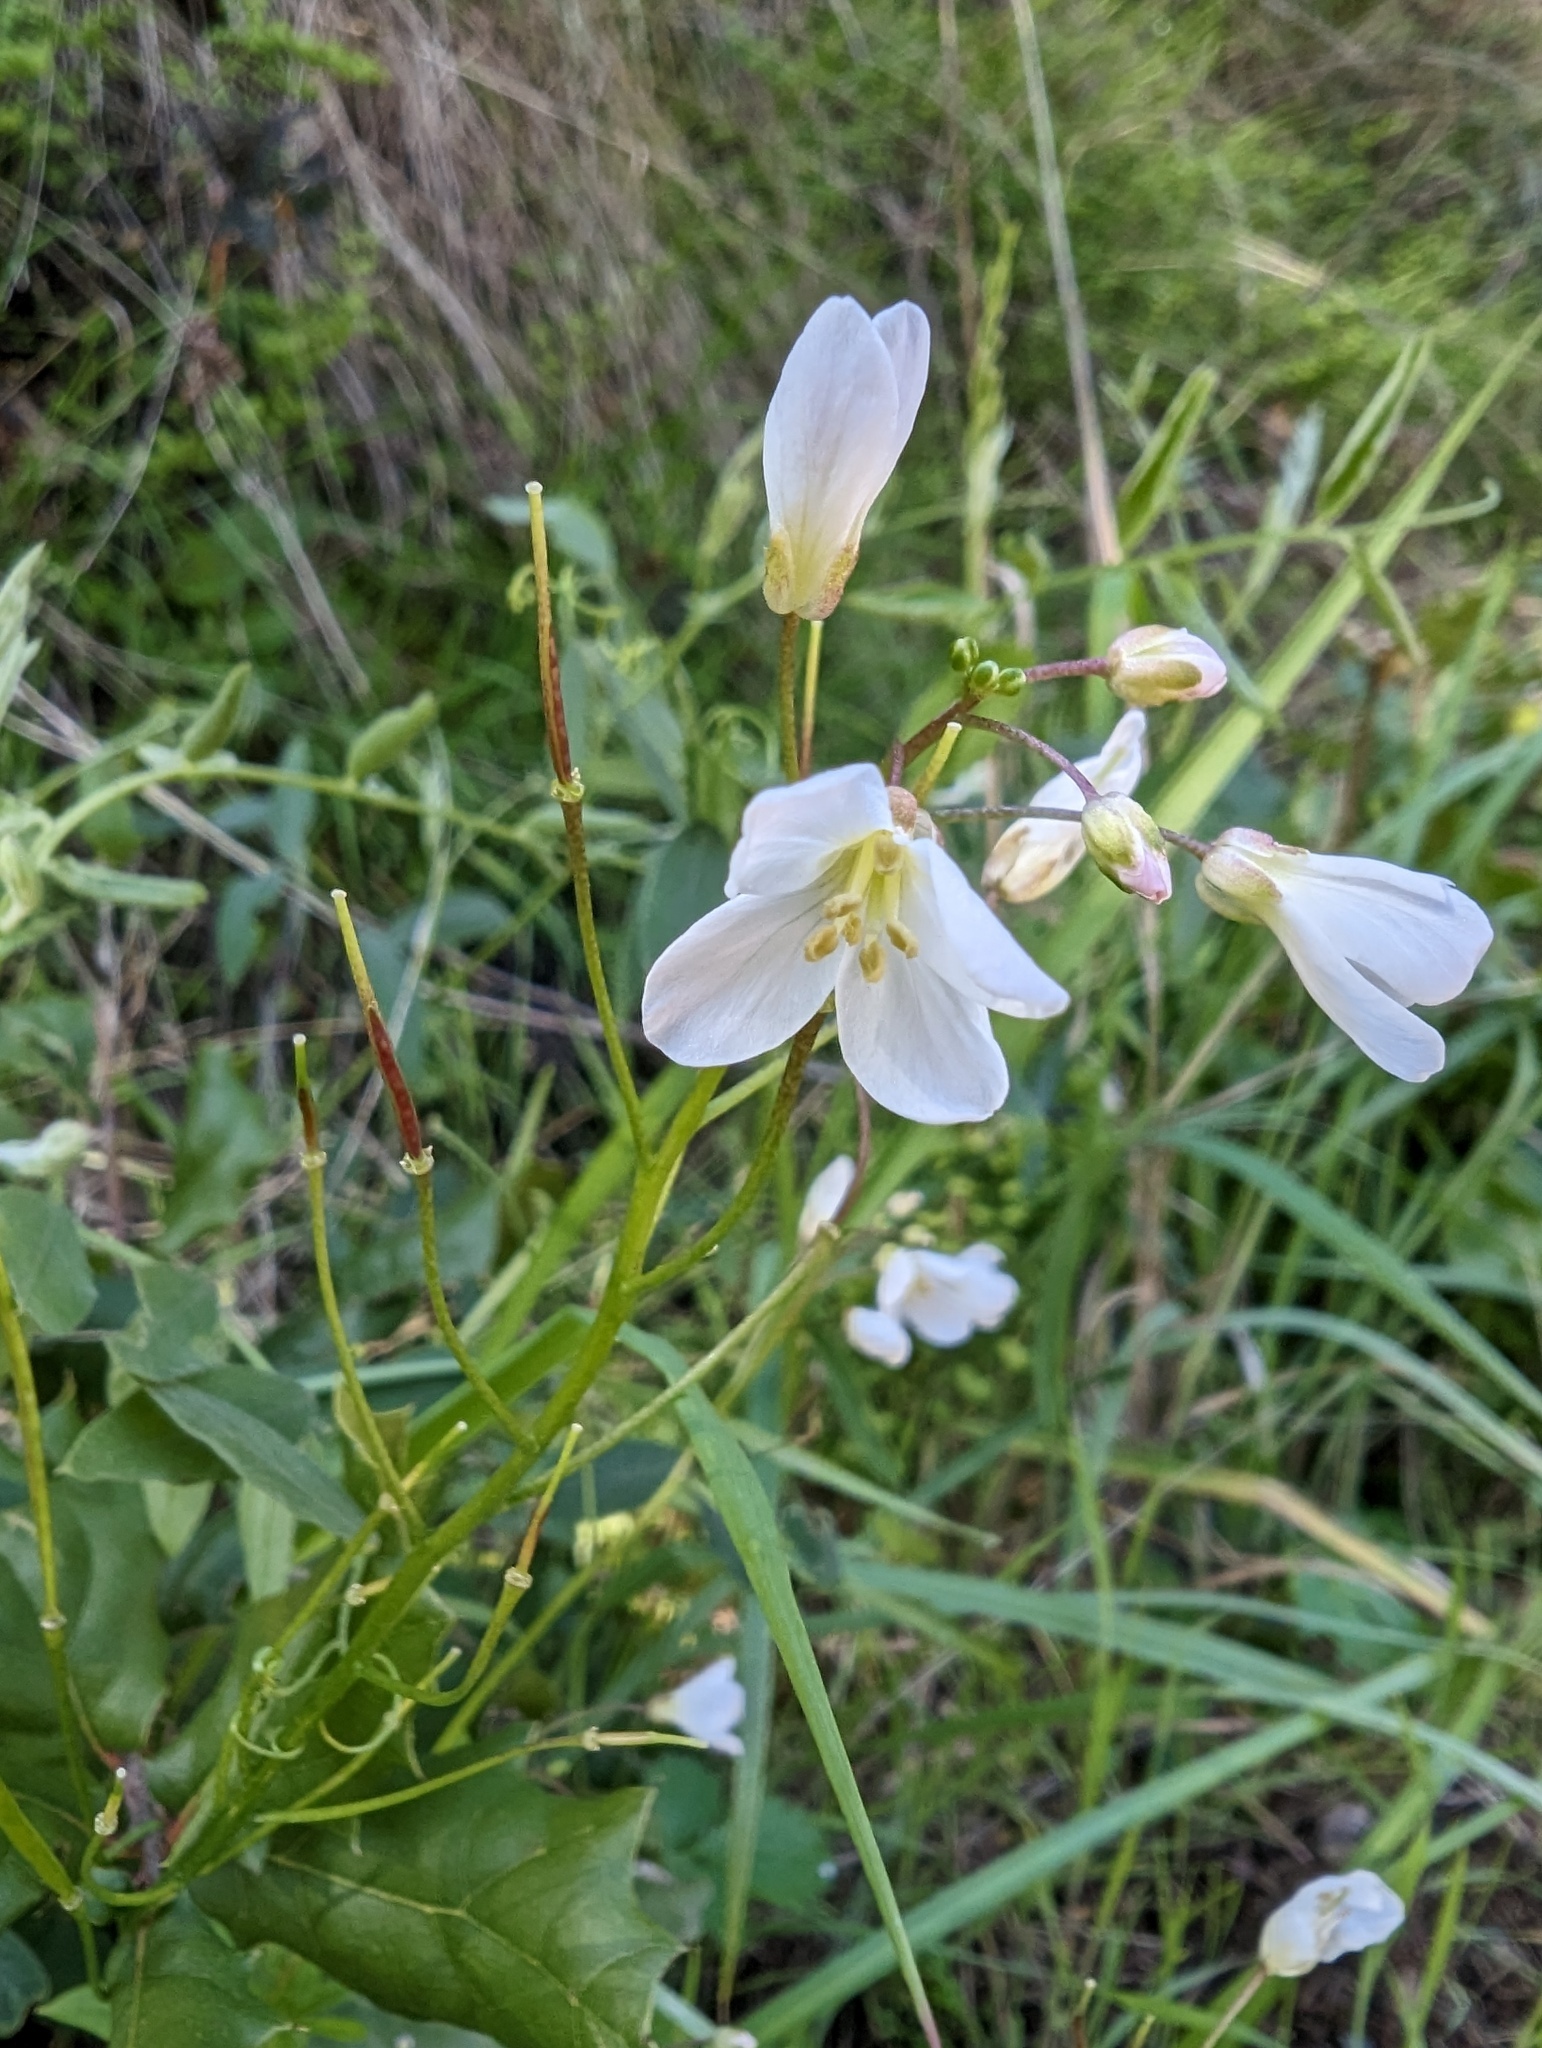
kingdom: Plantae
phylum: Tracheophyta
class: Magnoliopsida
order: Brassicales
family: Brassicaceae
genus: Cardamine
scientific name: Cardamine californica
